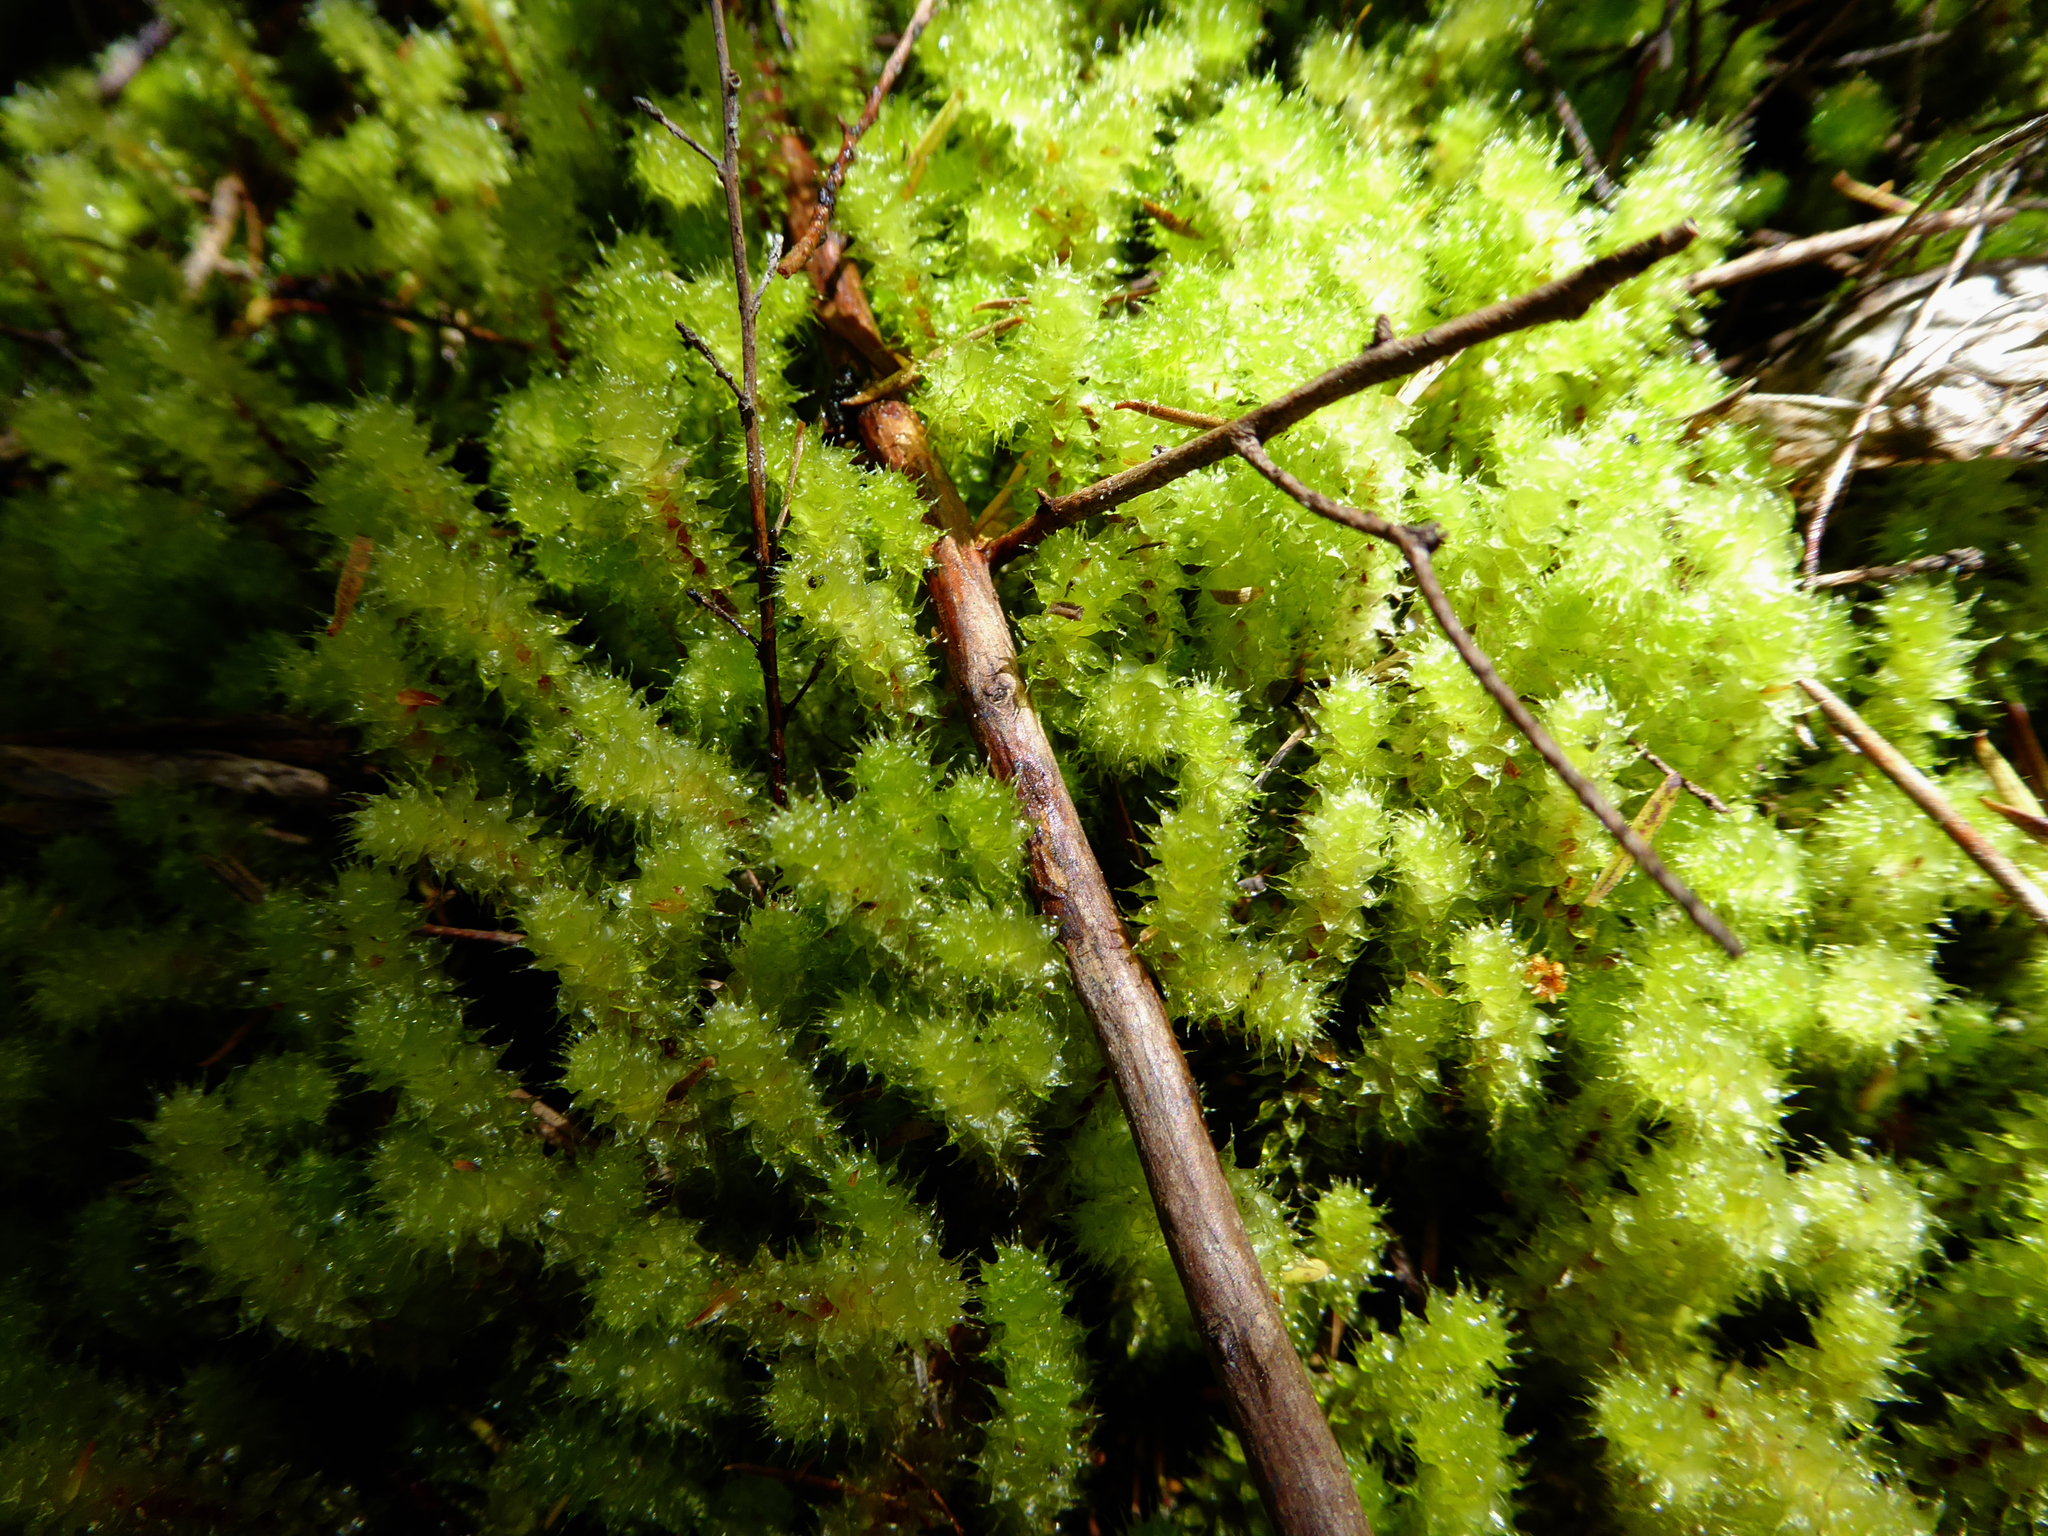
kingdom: Plantae
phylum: Bryophyta
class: Bryopsida
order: Ptychomniales
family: Ptychomniaceae
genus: Ptychomnion
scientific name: Ptychomnion aciculare
